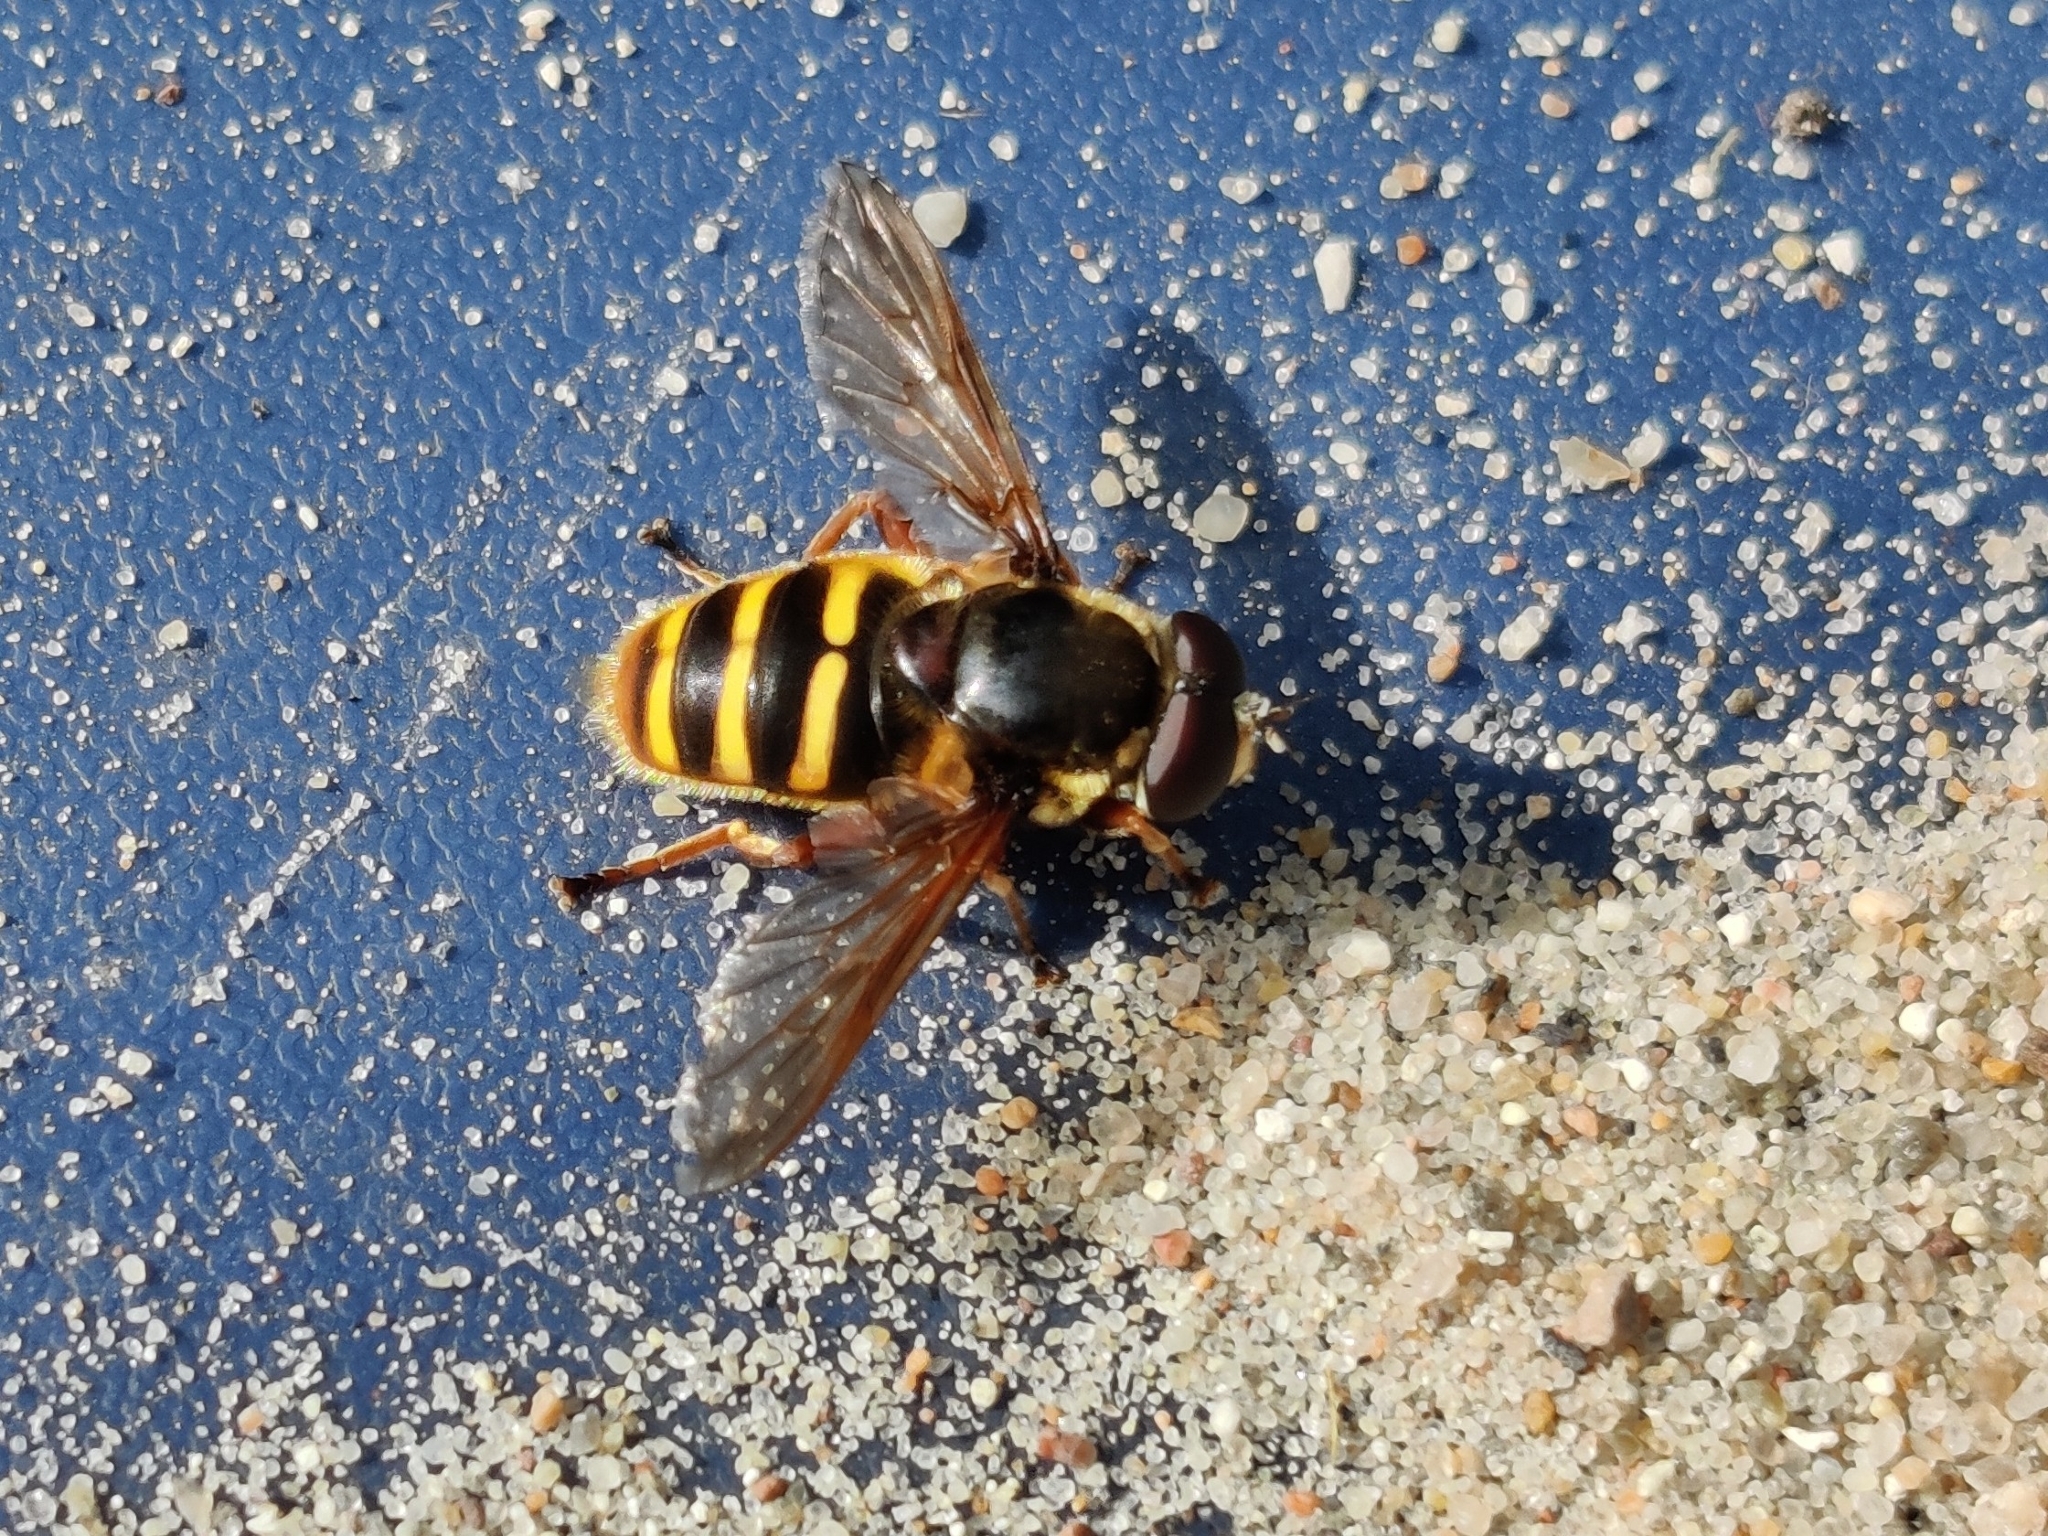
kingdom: Animalia
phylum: Arthropoda
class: Insecta
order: Diptera
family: Syrphidae
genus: Sericomyia
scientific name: Sericomyia silentis
